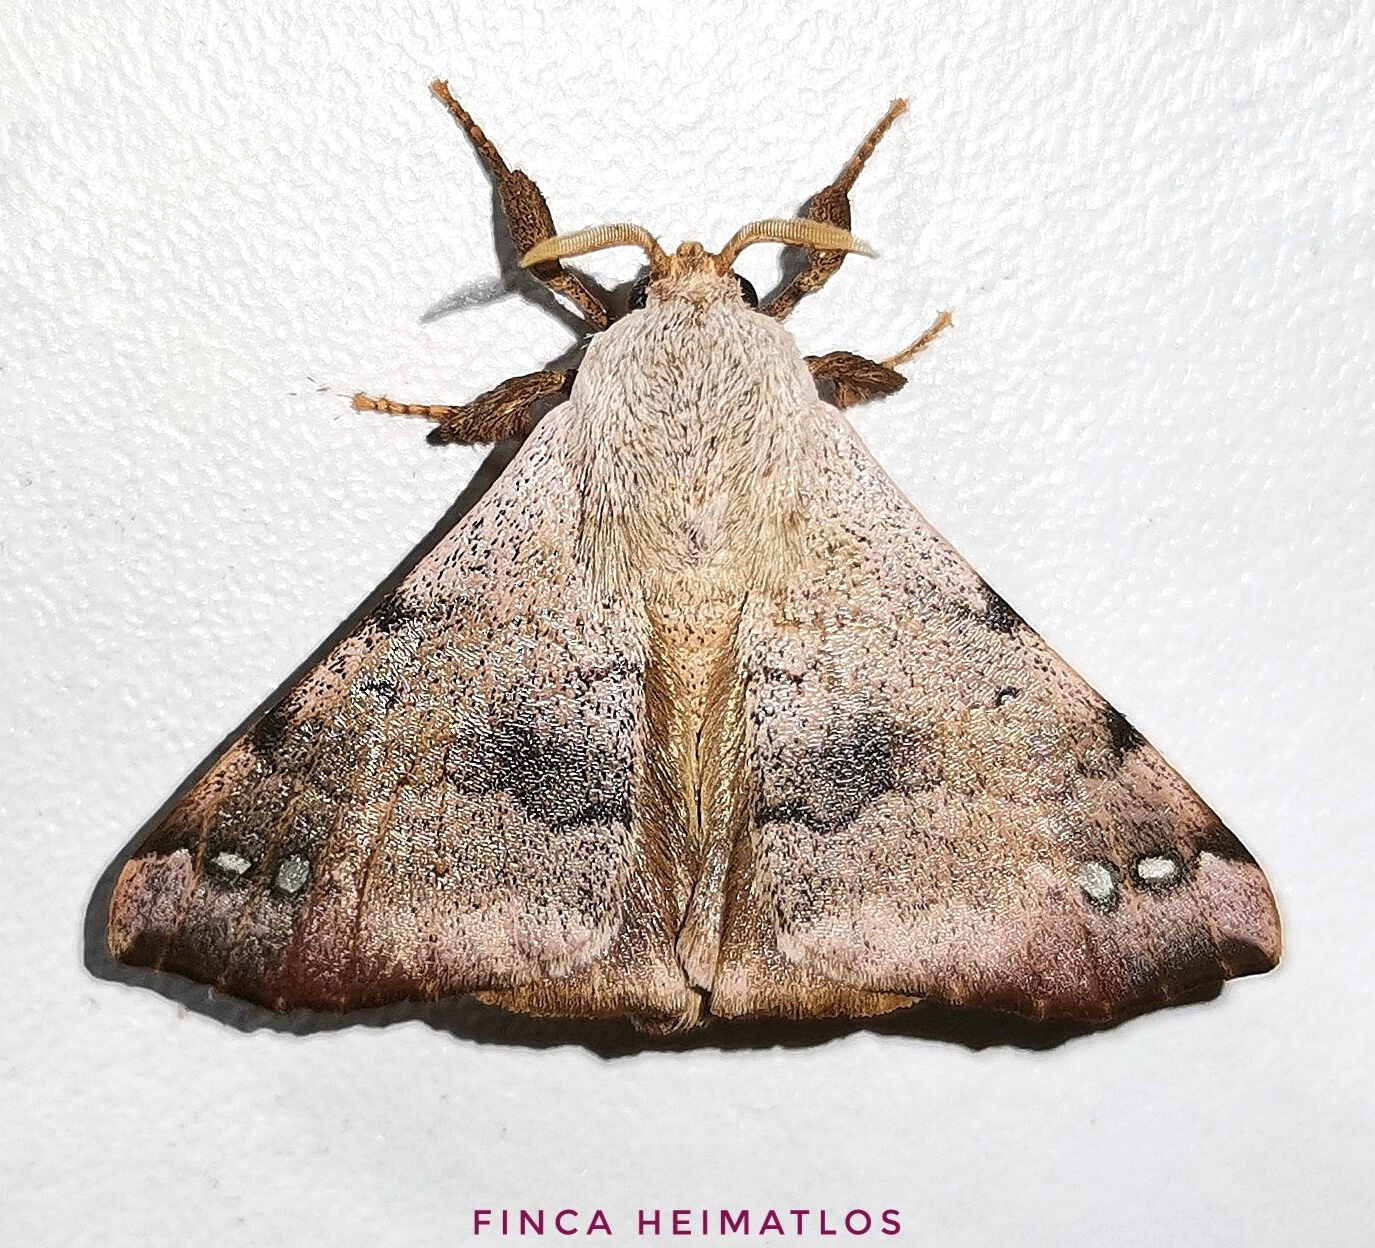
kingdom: Animalia
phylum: Arthropoda
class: Insecta
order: Lepidoptera
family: Apatelodidae
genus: Hygrochroa
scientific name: Hygrochroa Apatelodes anna
